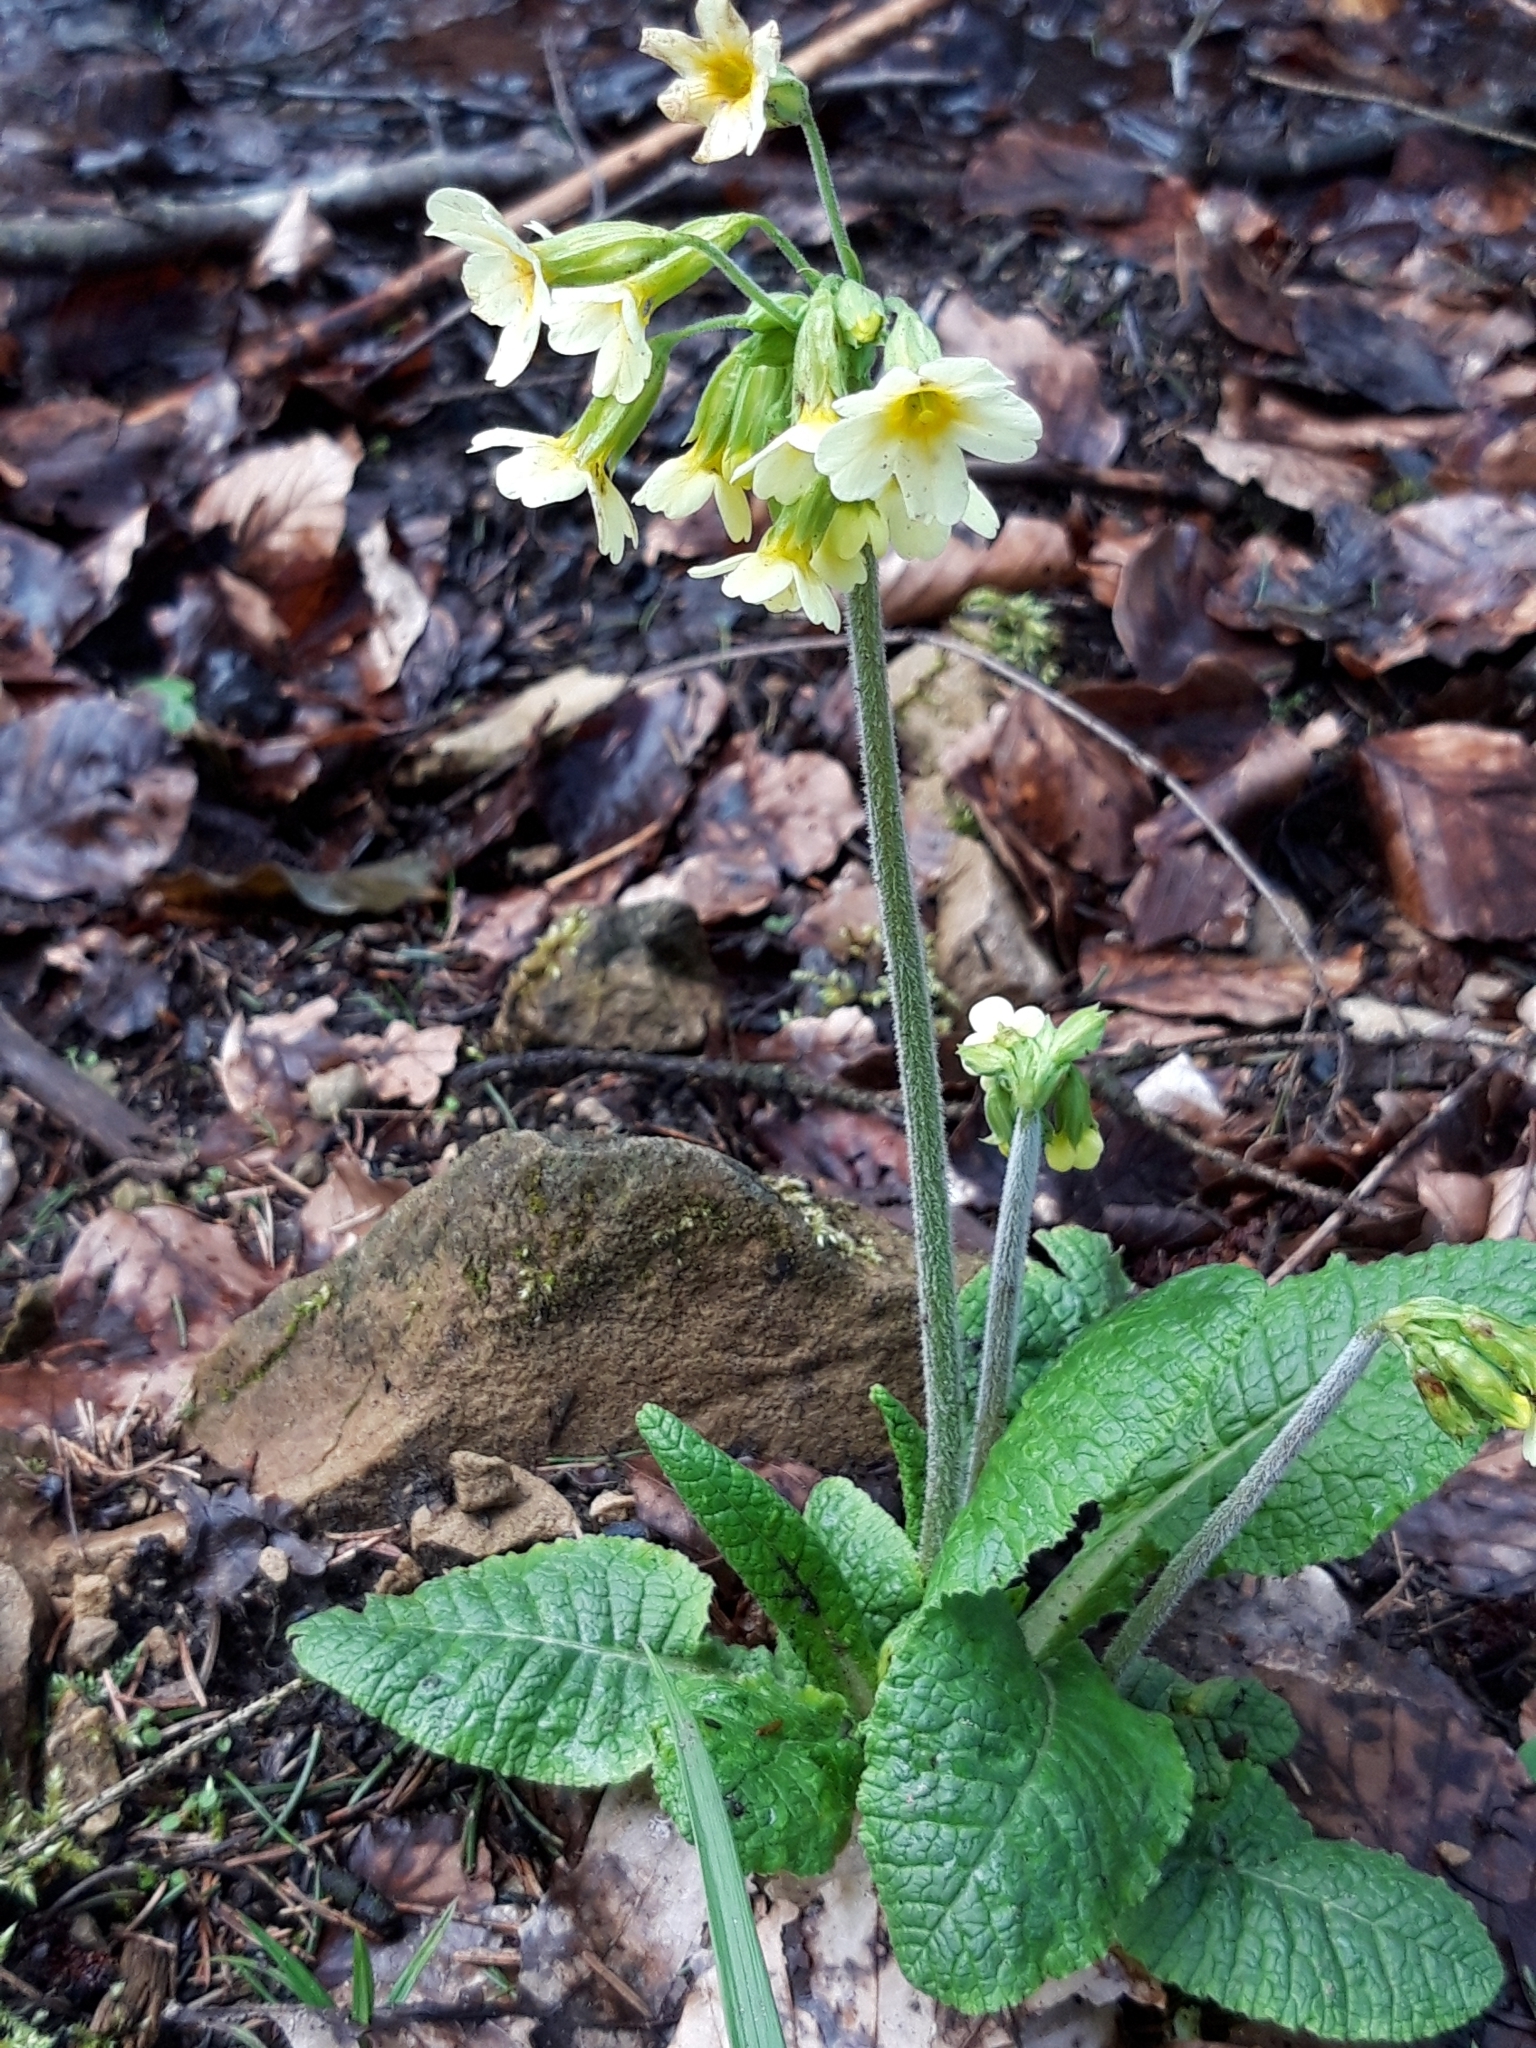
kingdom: Plantae
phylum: Tracheophyta
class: Magnoliopsida
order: Ericales
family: Primulaceae
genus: Primula
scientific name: Primula elatior
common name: Oxlip
